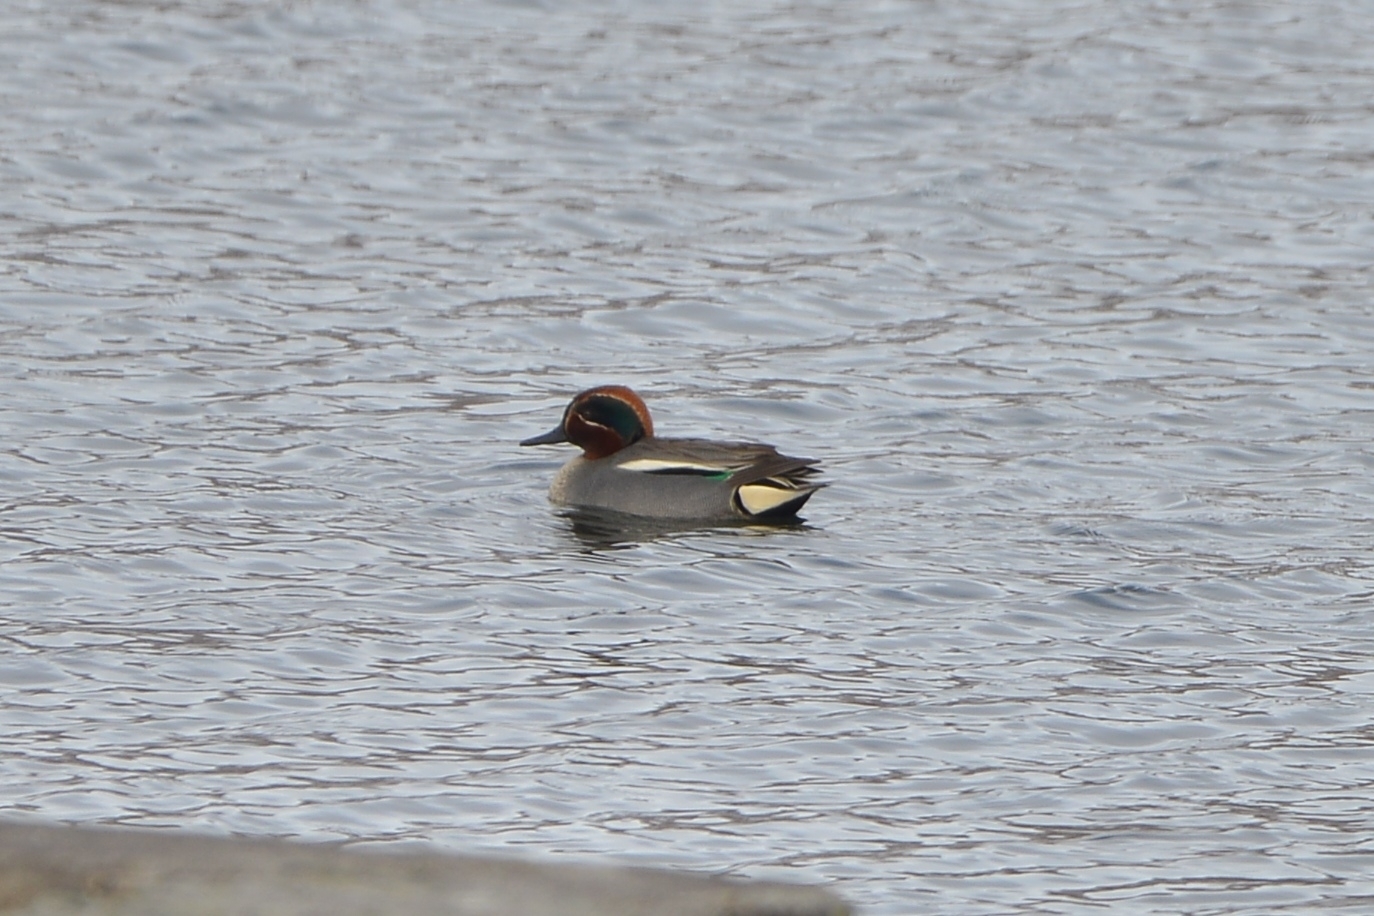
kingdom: Animalia
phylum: Chordata
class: Aves
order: Anseriformes
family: Anatidae
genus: Anas
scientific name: Anas crecca
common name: Eurasian teal
